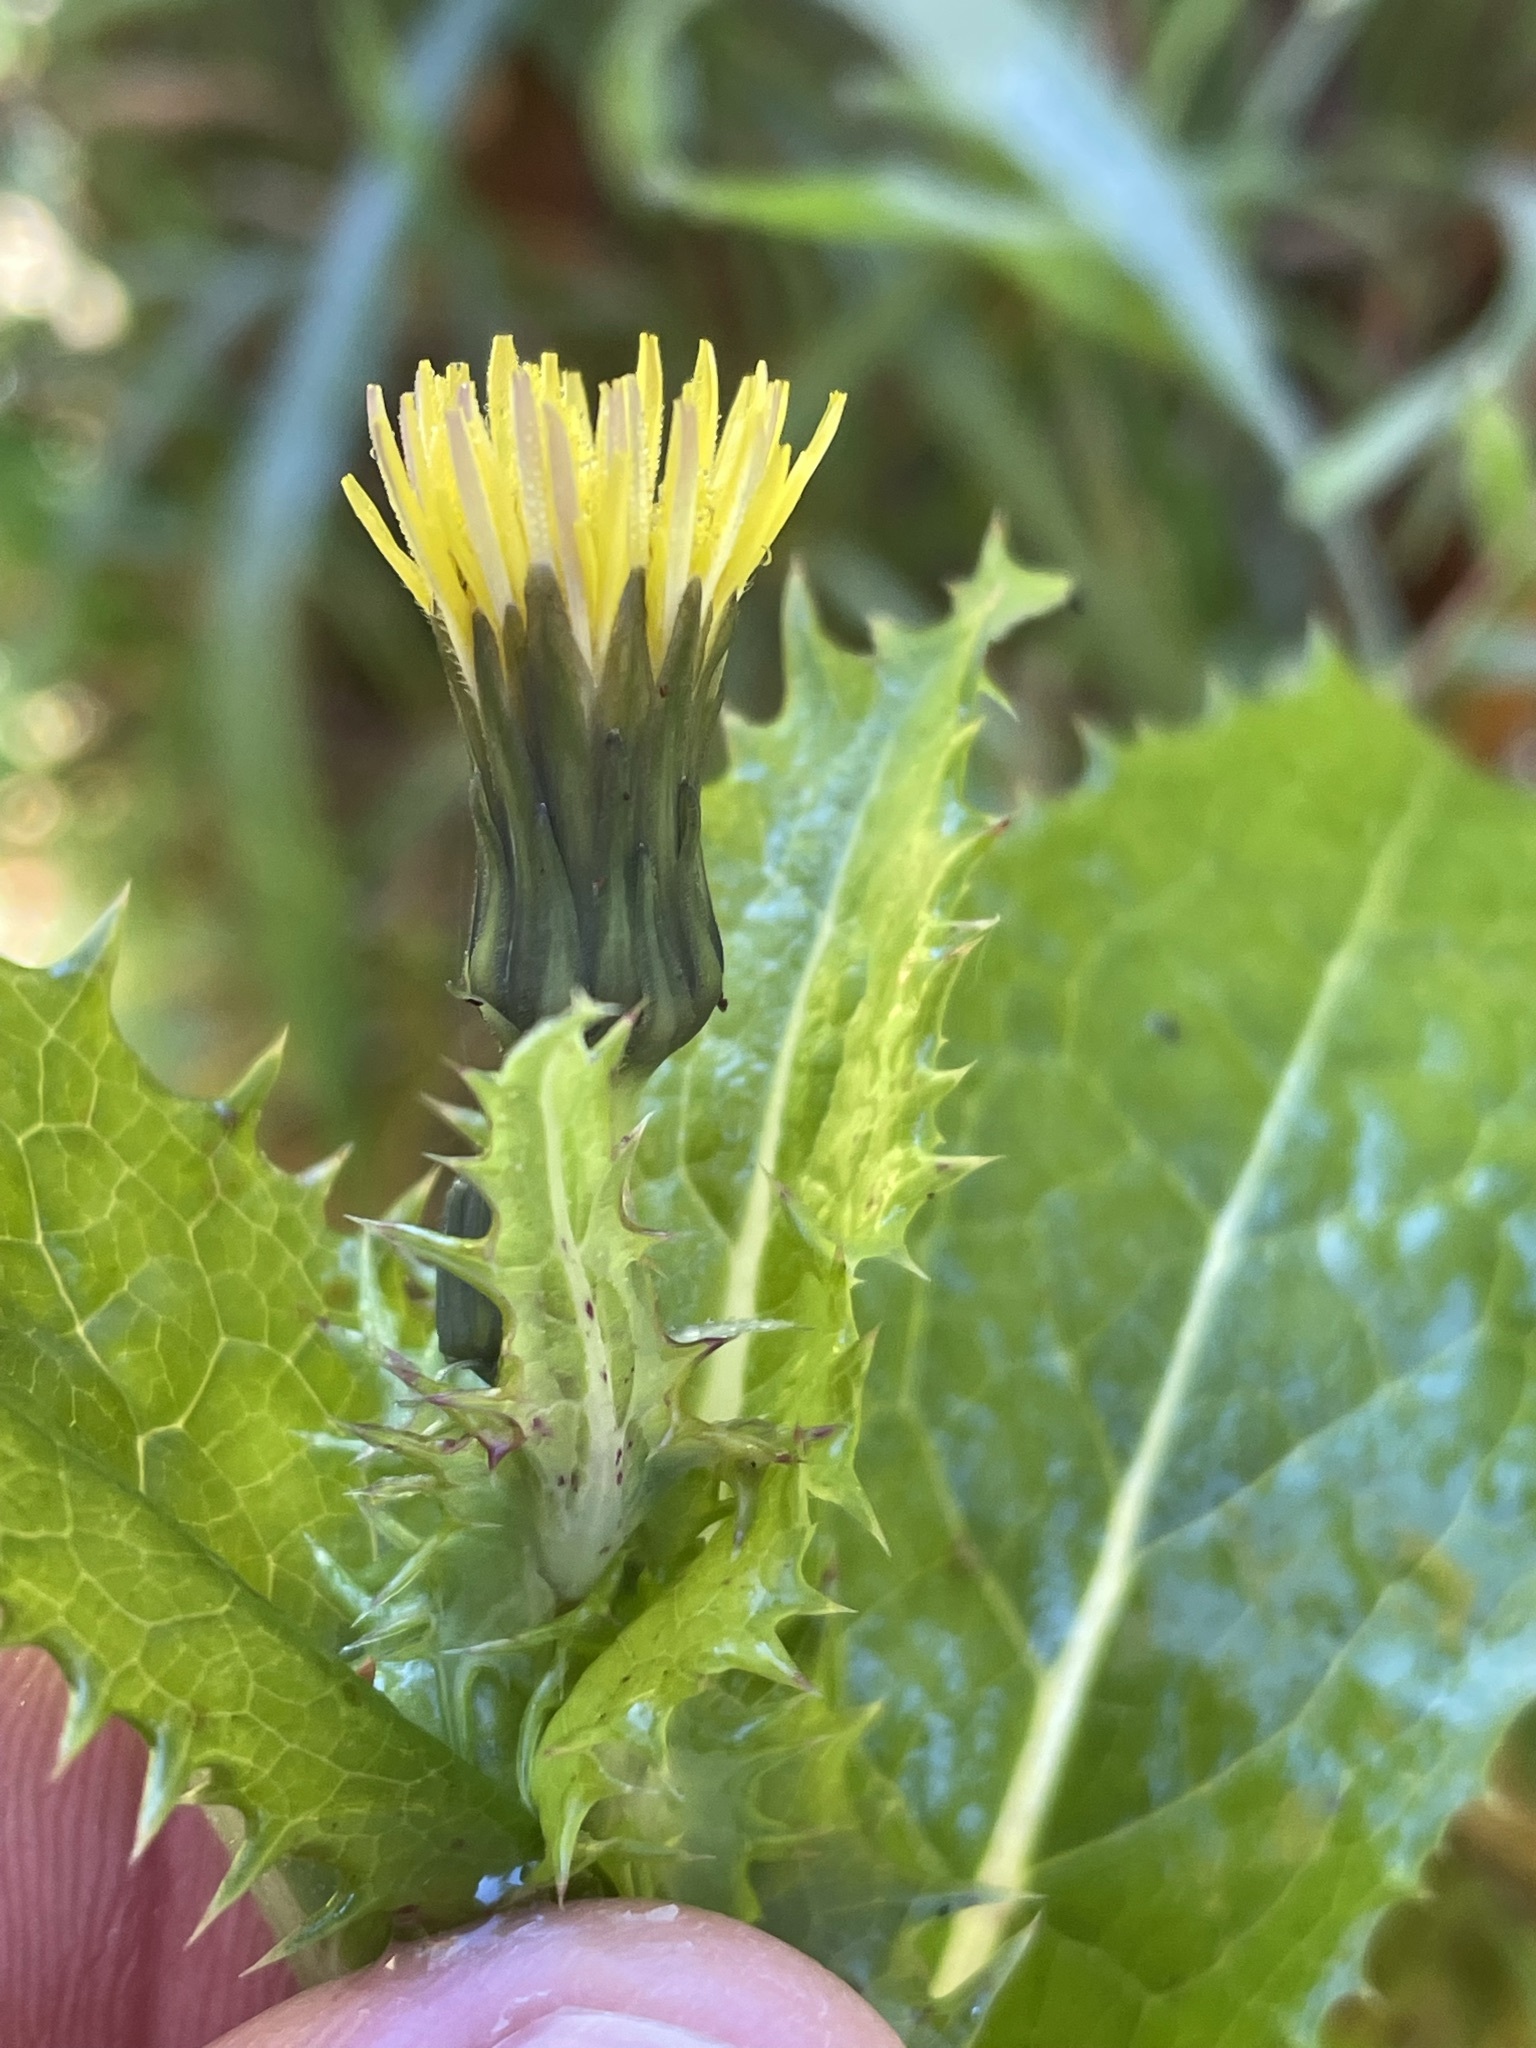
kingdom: Plantae
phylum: Tracheophyta
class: Magnoliopsida
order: Asterales
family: Asteraceae
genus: Sonchus
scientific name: Sonchus asper
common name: Prickly sow-thistle
